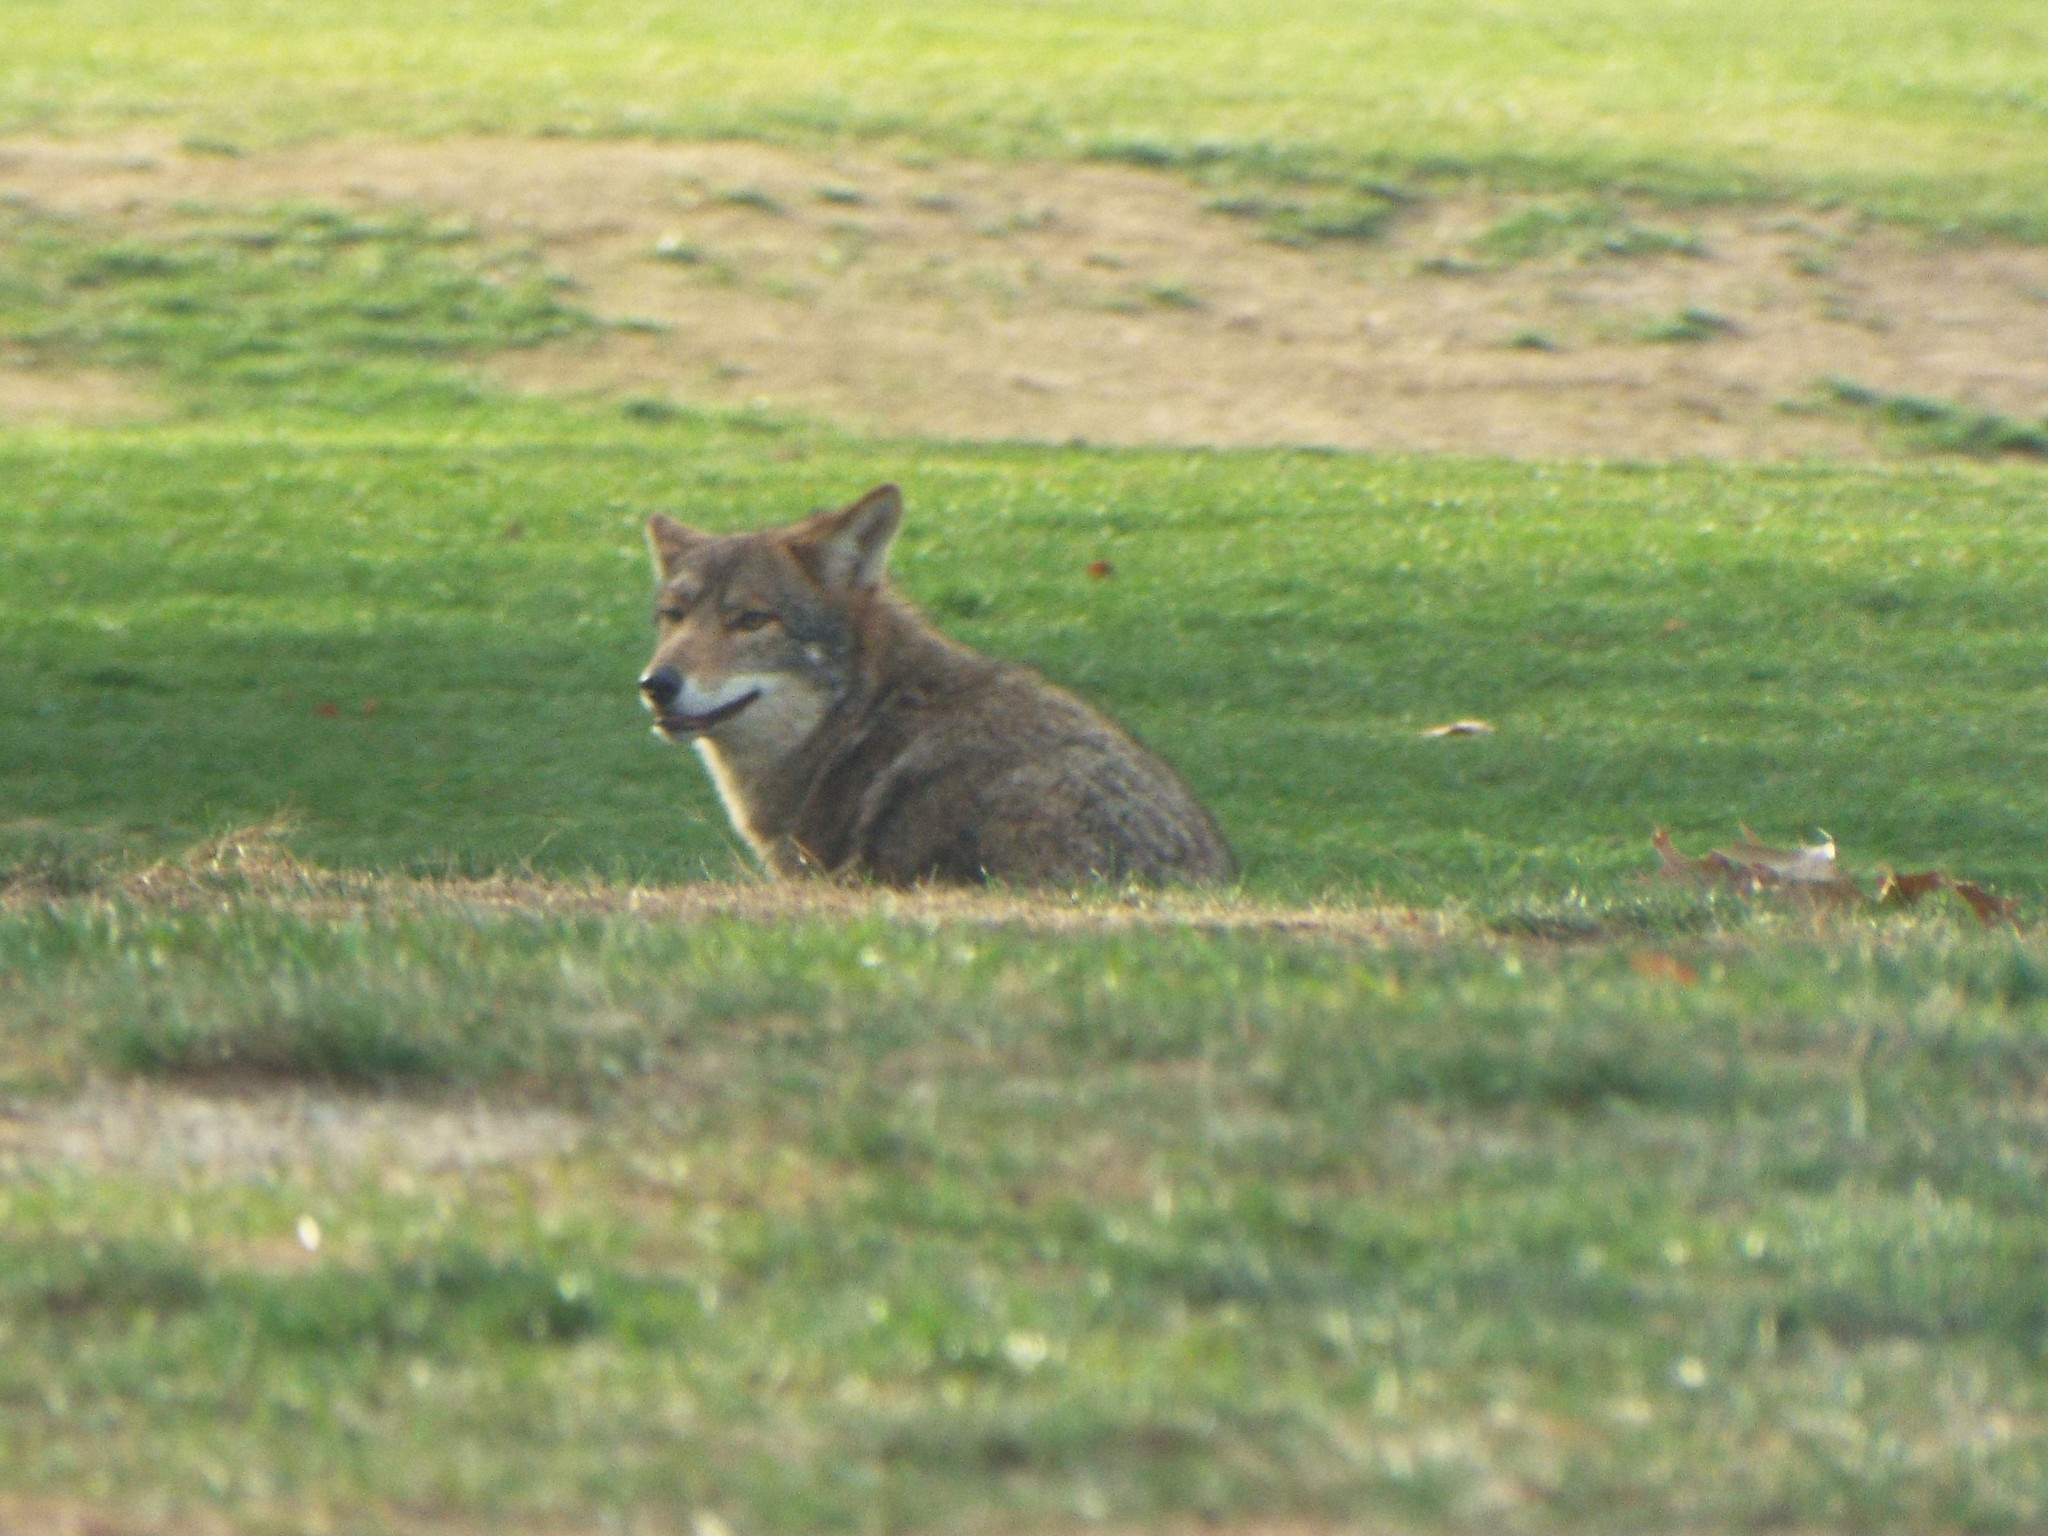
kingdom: Animalia
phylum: Chordata
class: Mammalia
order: Carnivora
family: Canidae
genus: Canis
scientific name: Canis latrans
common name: Coyote
